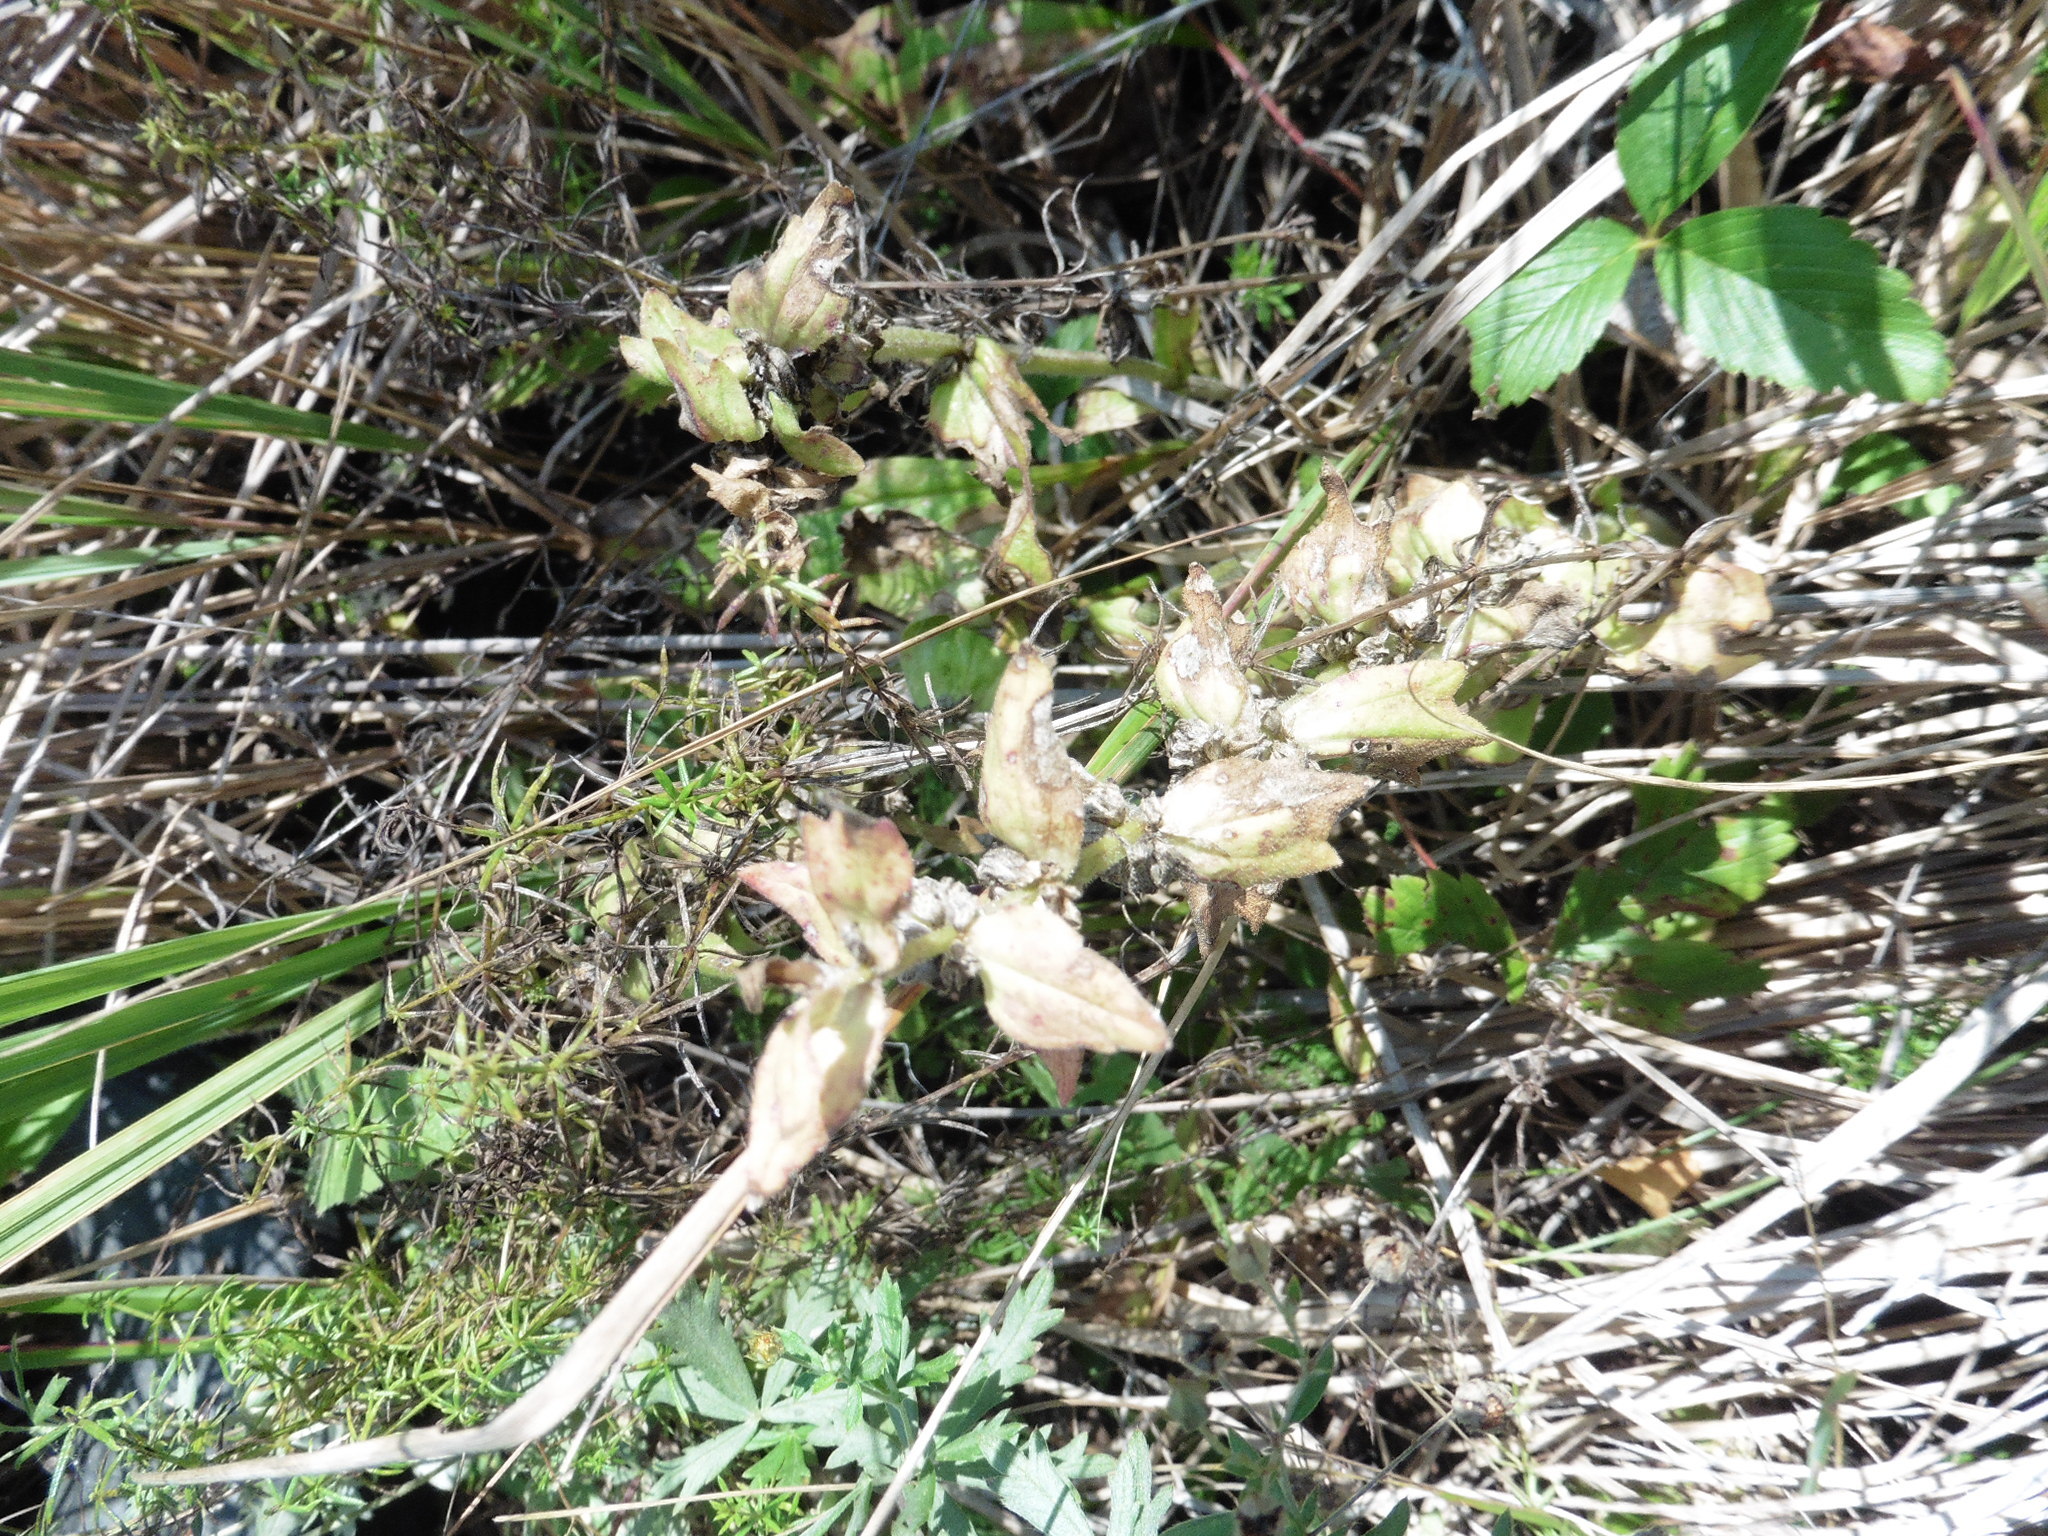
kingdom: Plantae
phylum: Tracheophyta
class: Magnoliopsida
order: Lamiales
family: Lamiaceae
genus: Ajuga
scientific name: Ajuga genevensis
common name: Blue bugle
